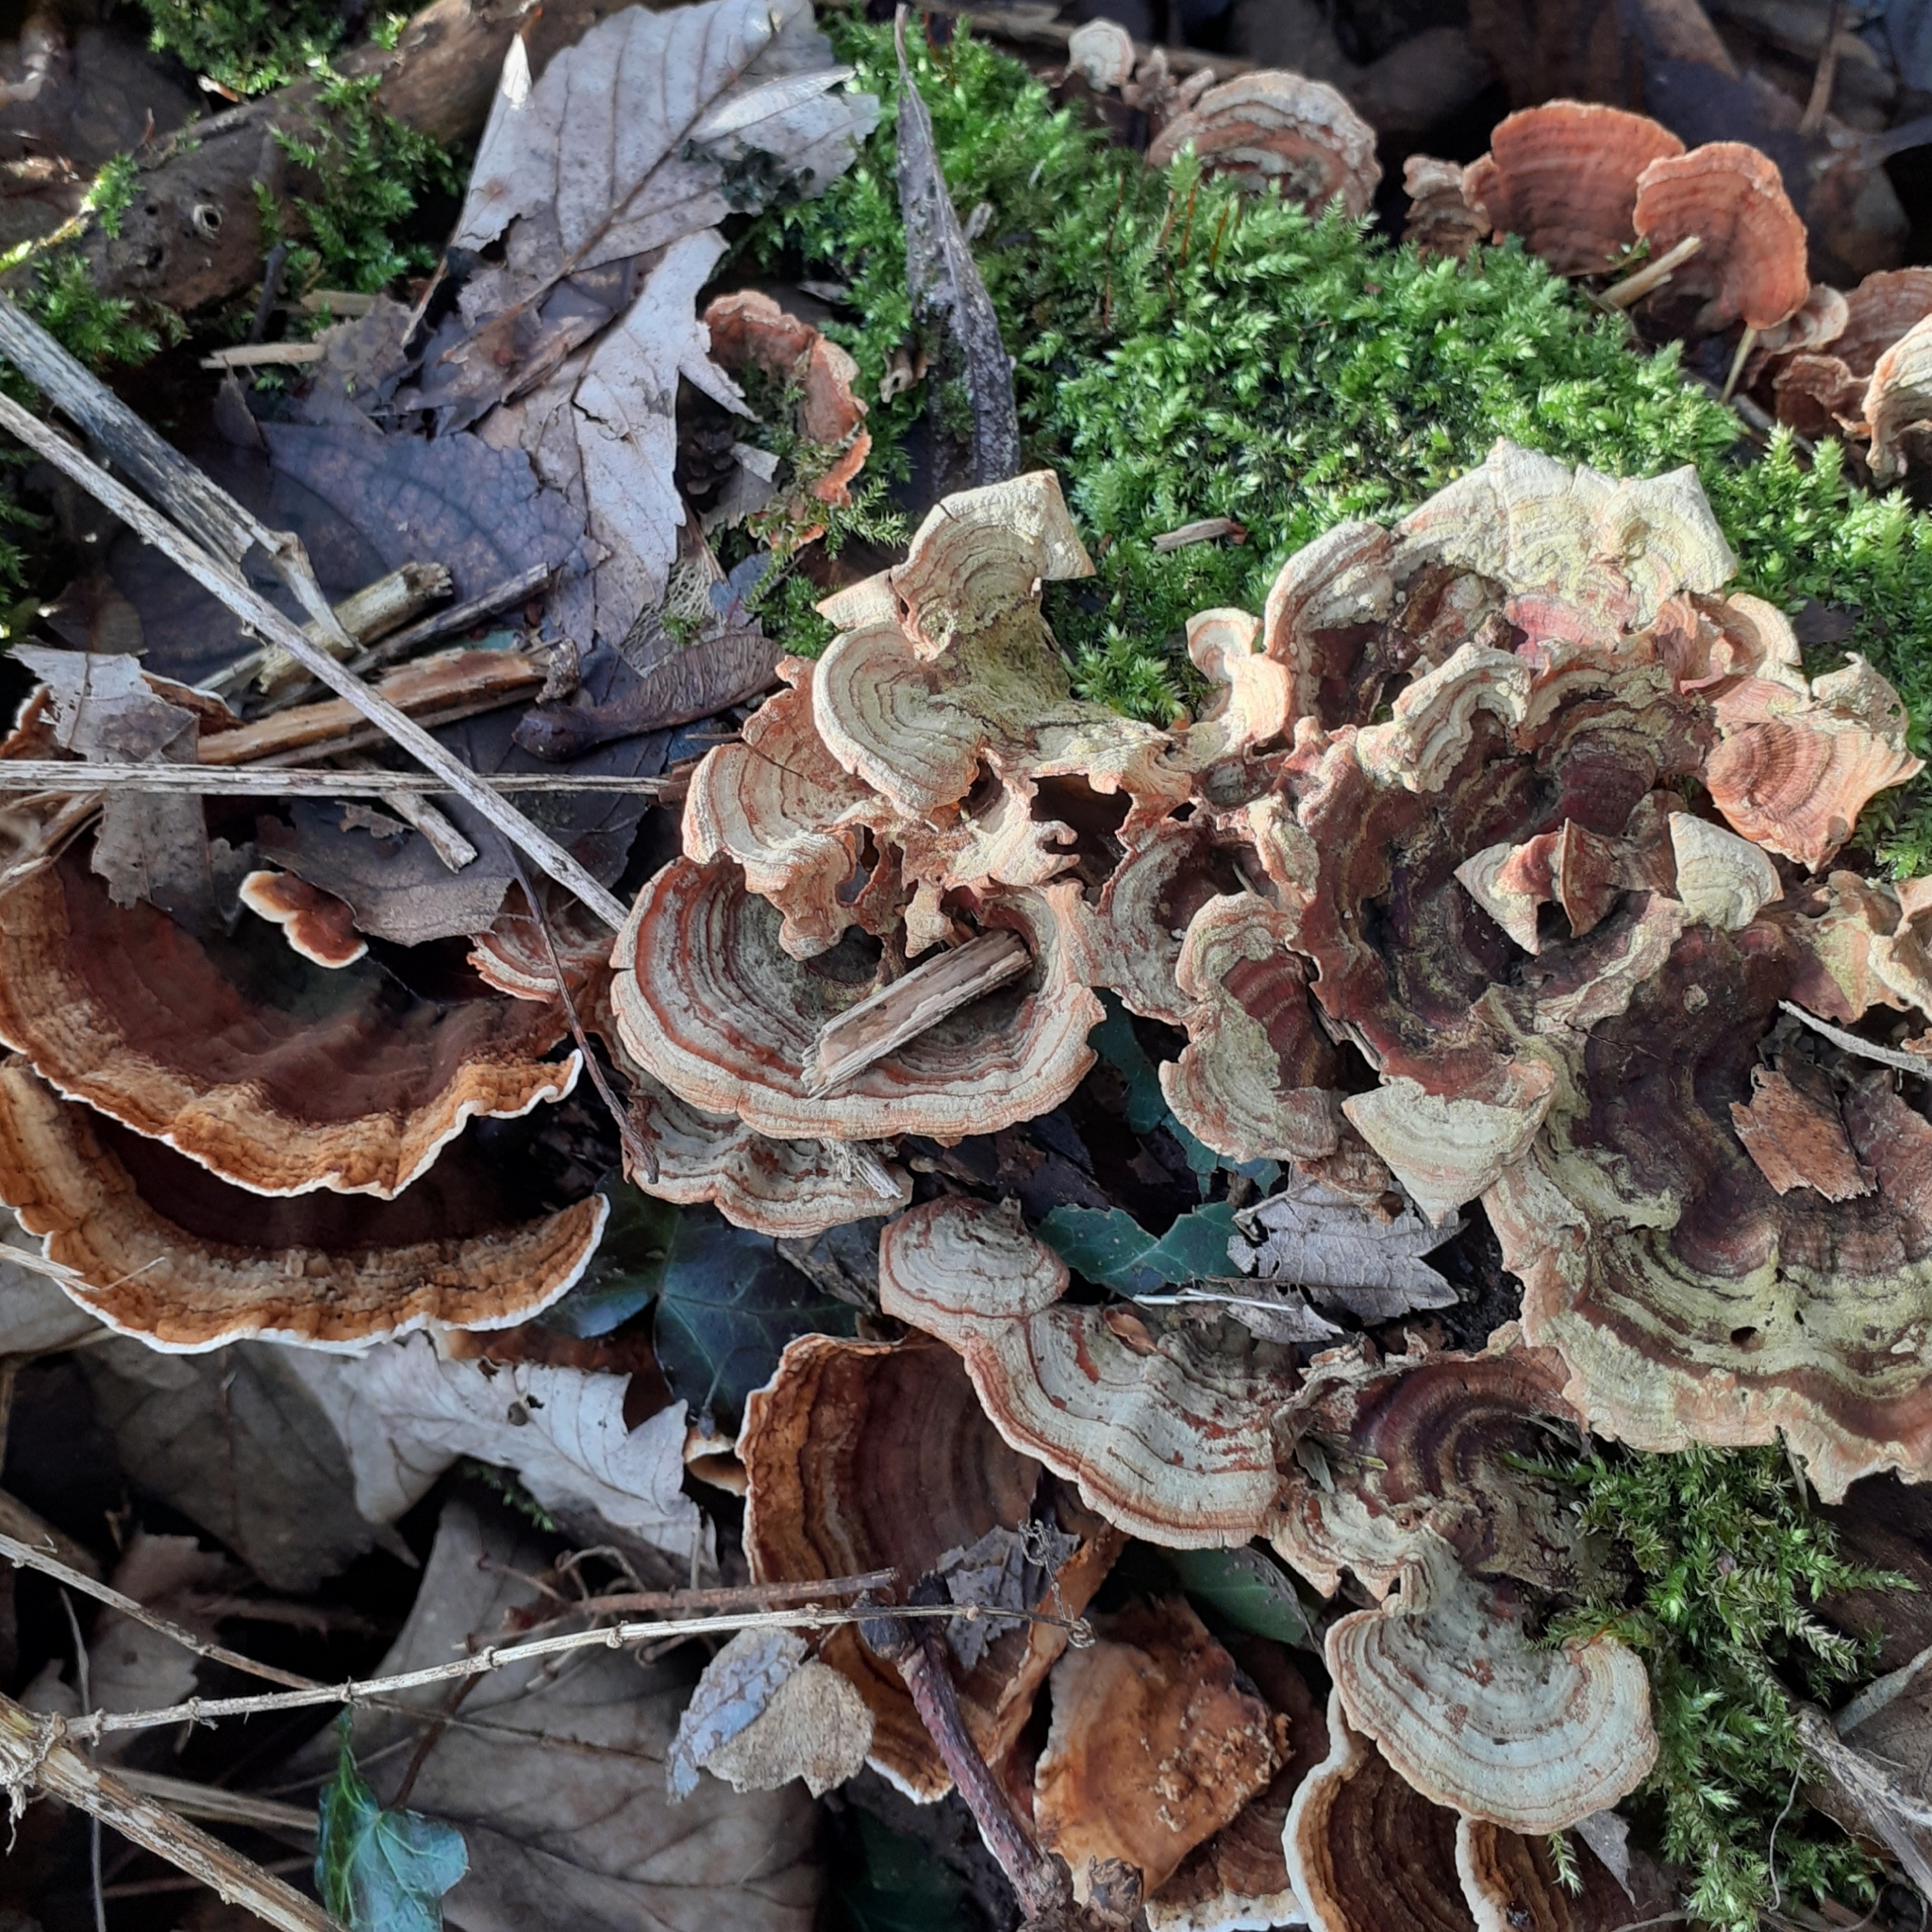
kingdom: Fungi
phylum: Basidiomycota
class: Agaricomycetes
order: Russulales
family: Stereaceae
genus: Stereum
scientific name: Stereum subtomentosum
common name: Yellowing curtain crust
